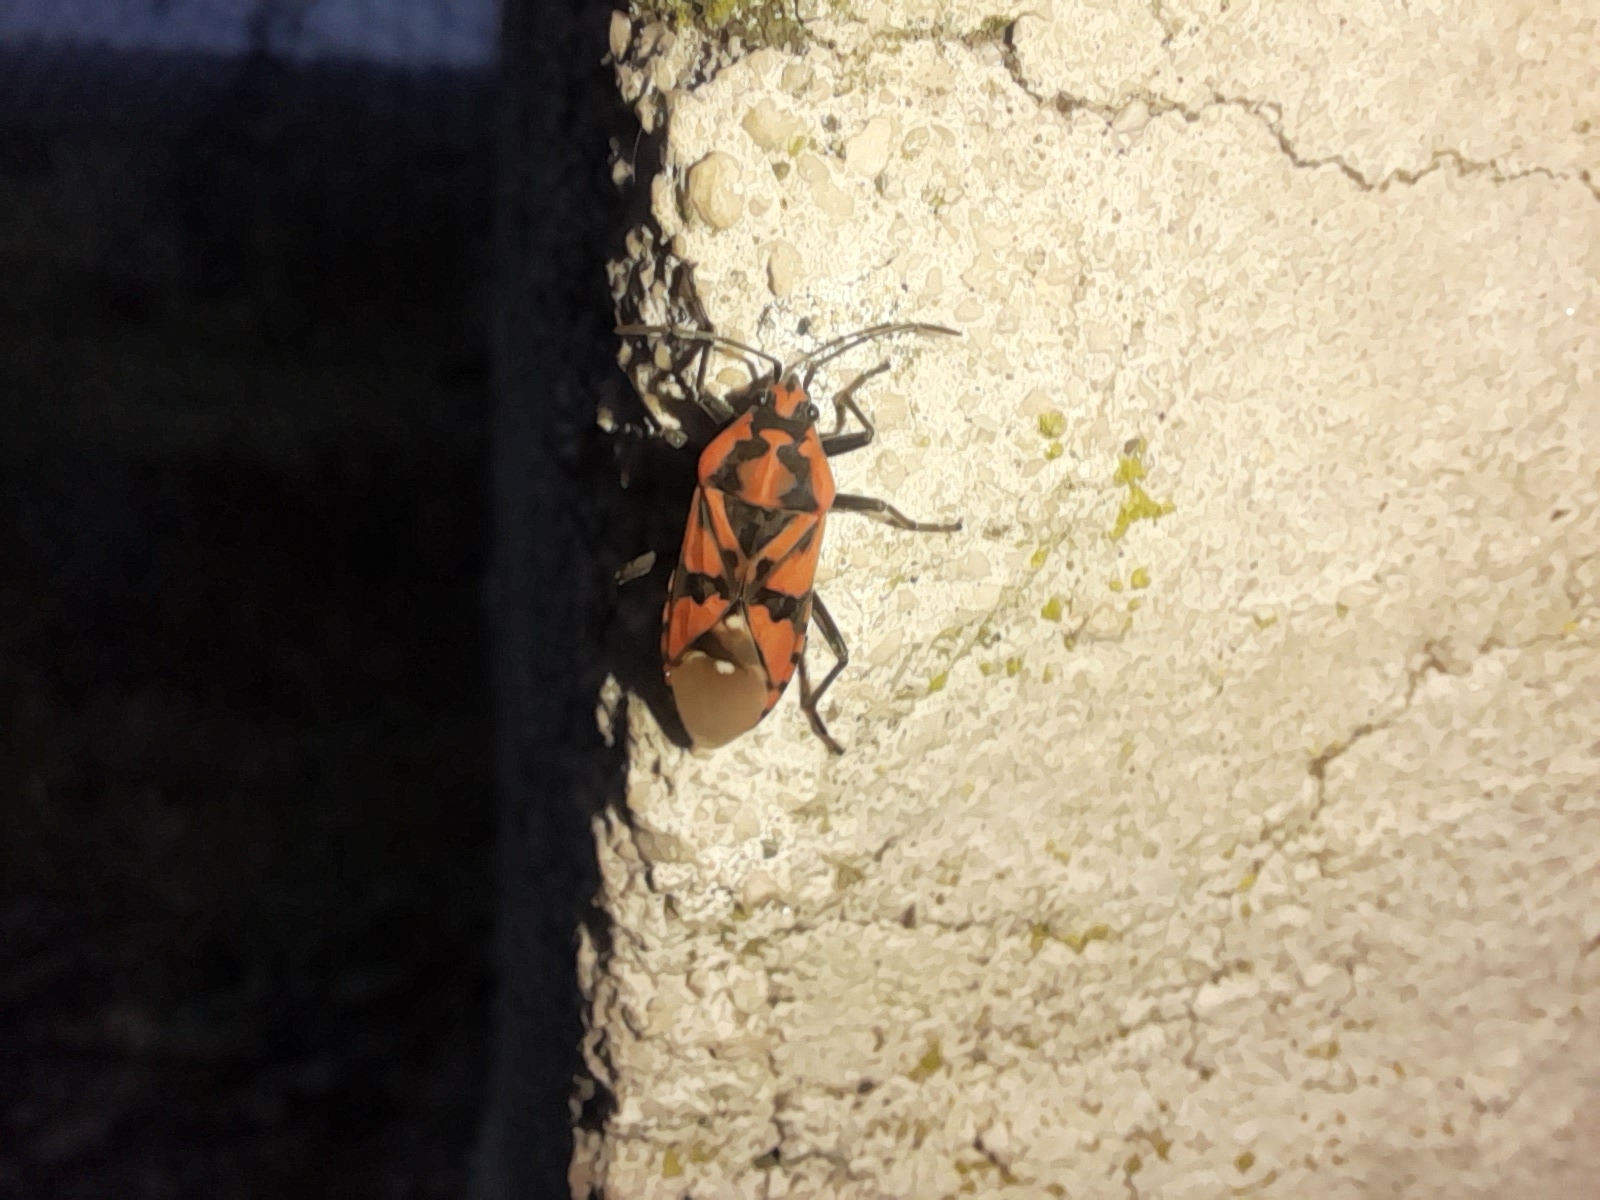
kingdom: Animalia
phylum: Arthropoda
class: Insecta
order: Hemiptera
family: Lygaeidae
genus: Spilostethus
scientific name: Spilostethus pandurus
